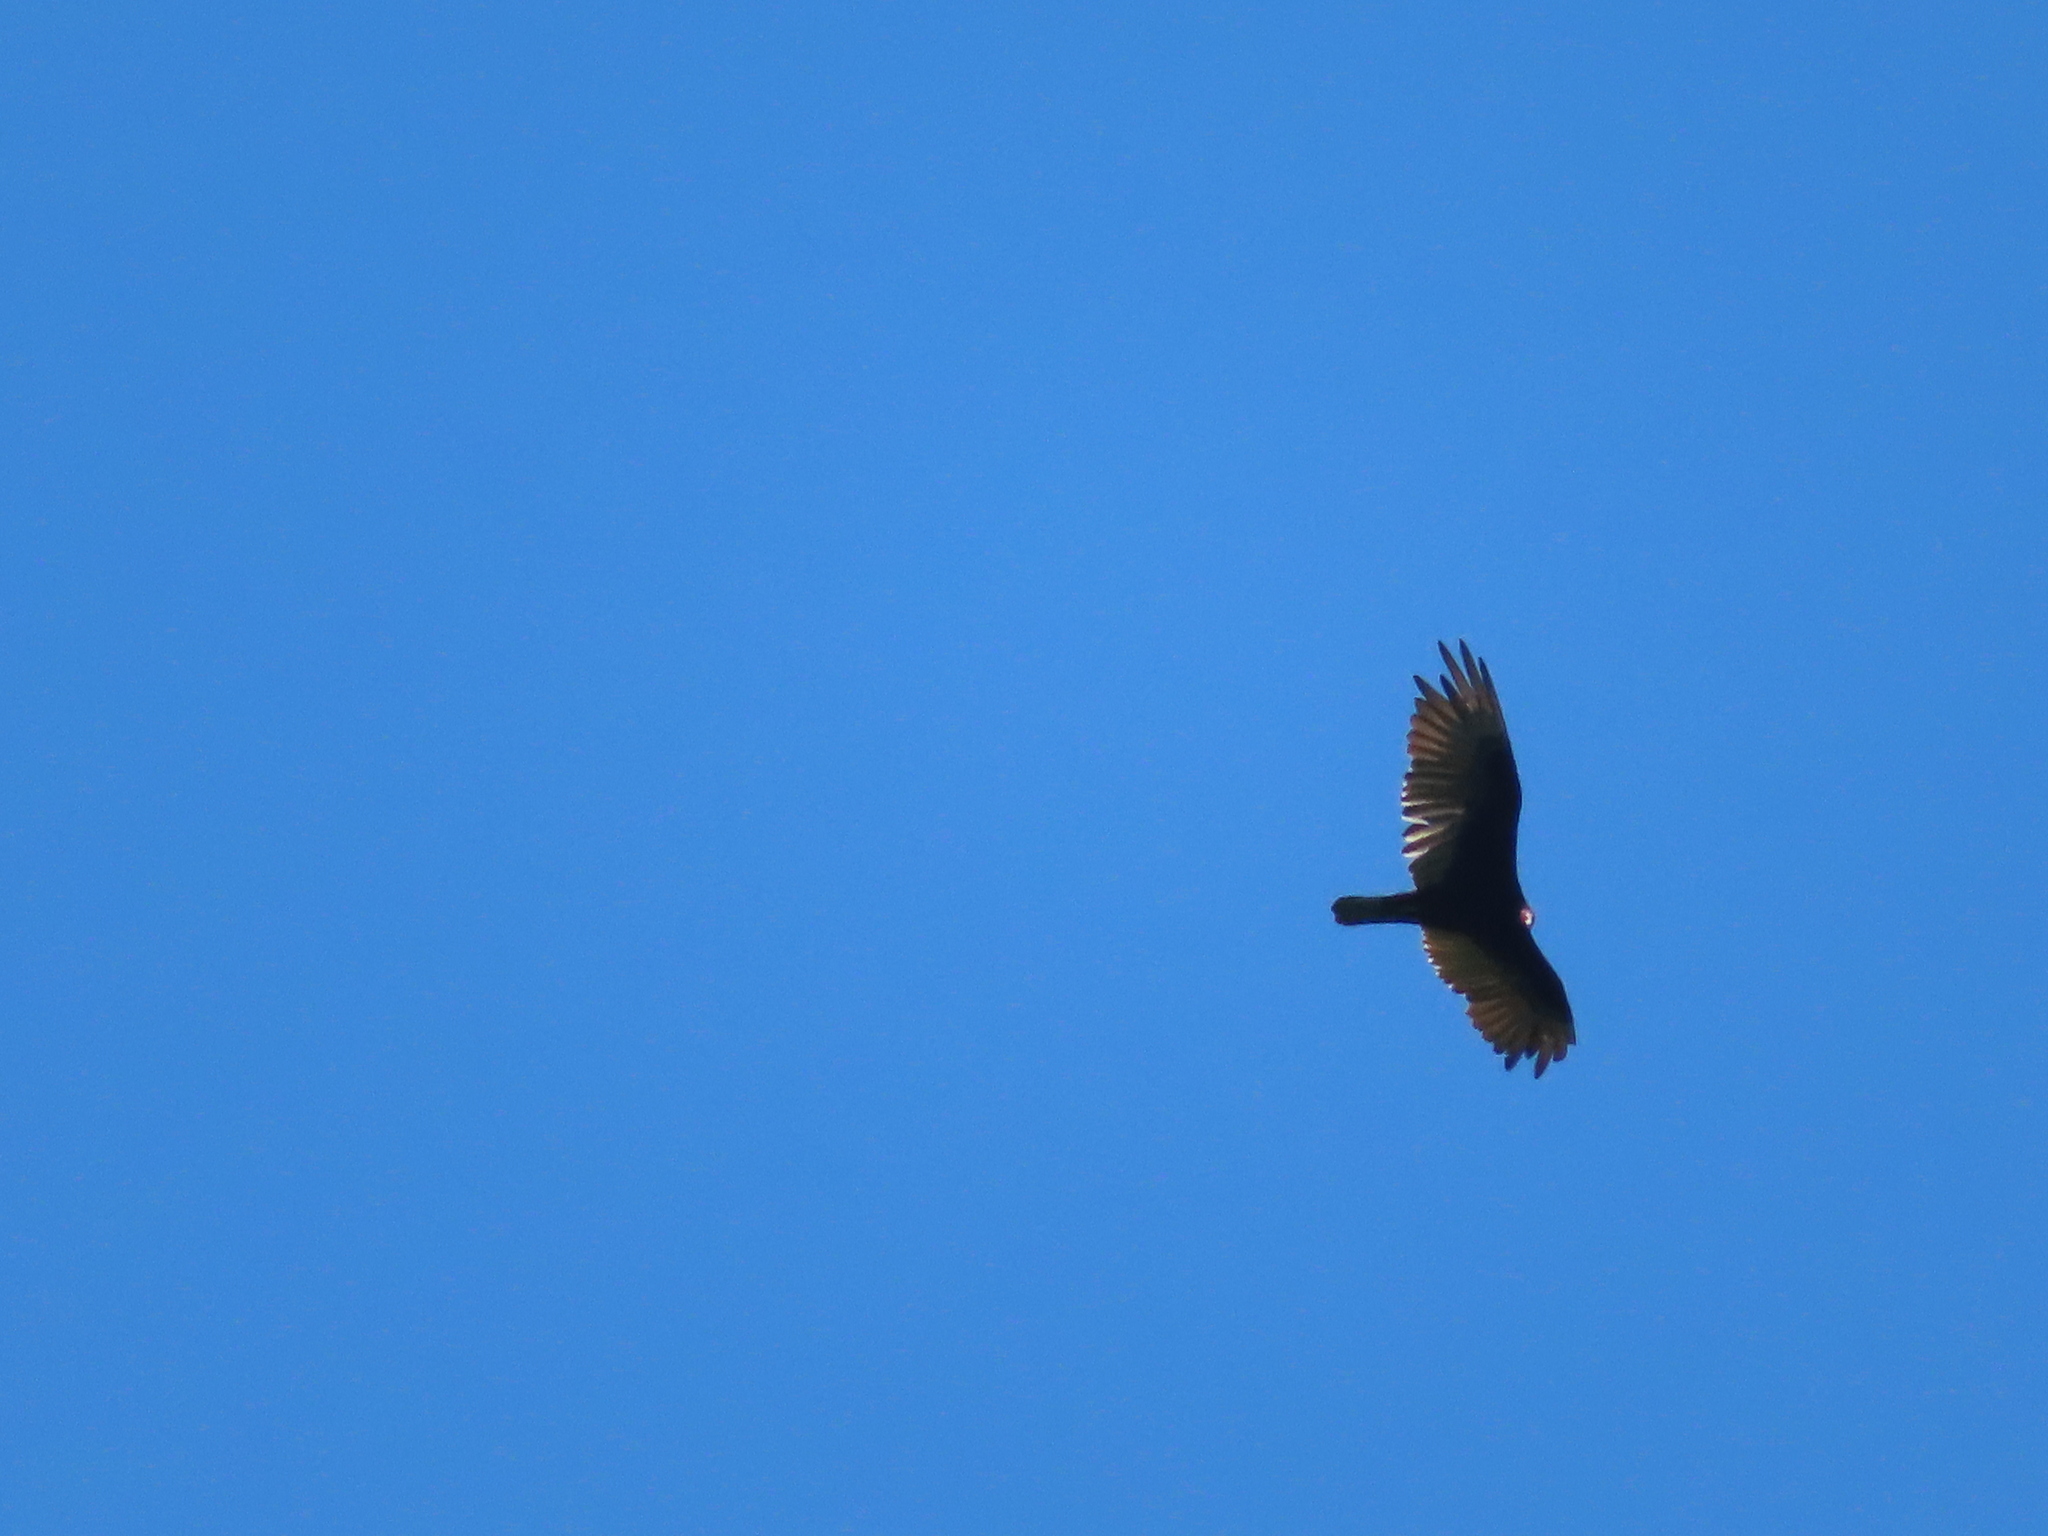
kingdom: Animalia
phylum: Chordata
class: Aves
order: Accipitriformes
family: Cathartidae
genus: Cathartes
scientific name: Cathartes aura
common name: Turkey vulture
